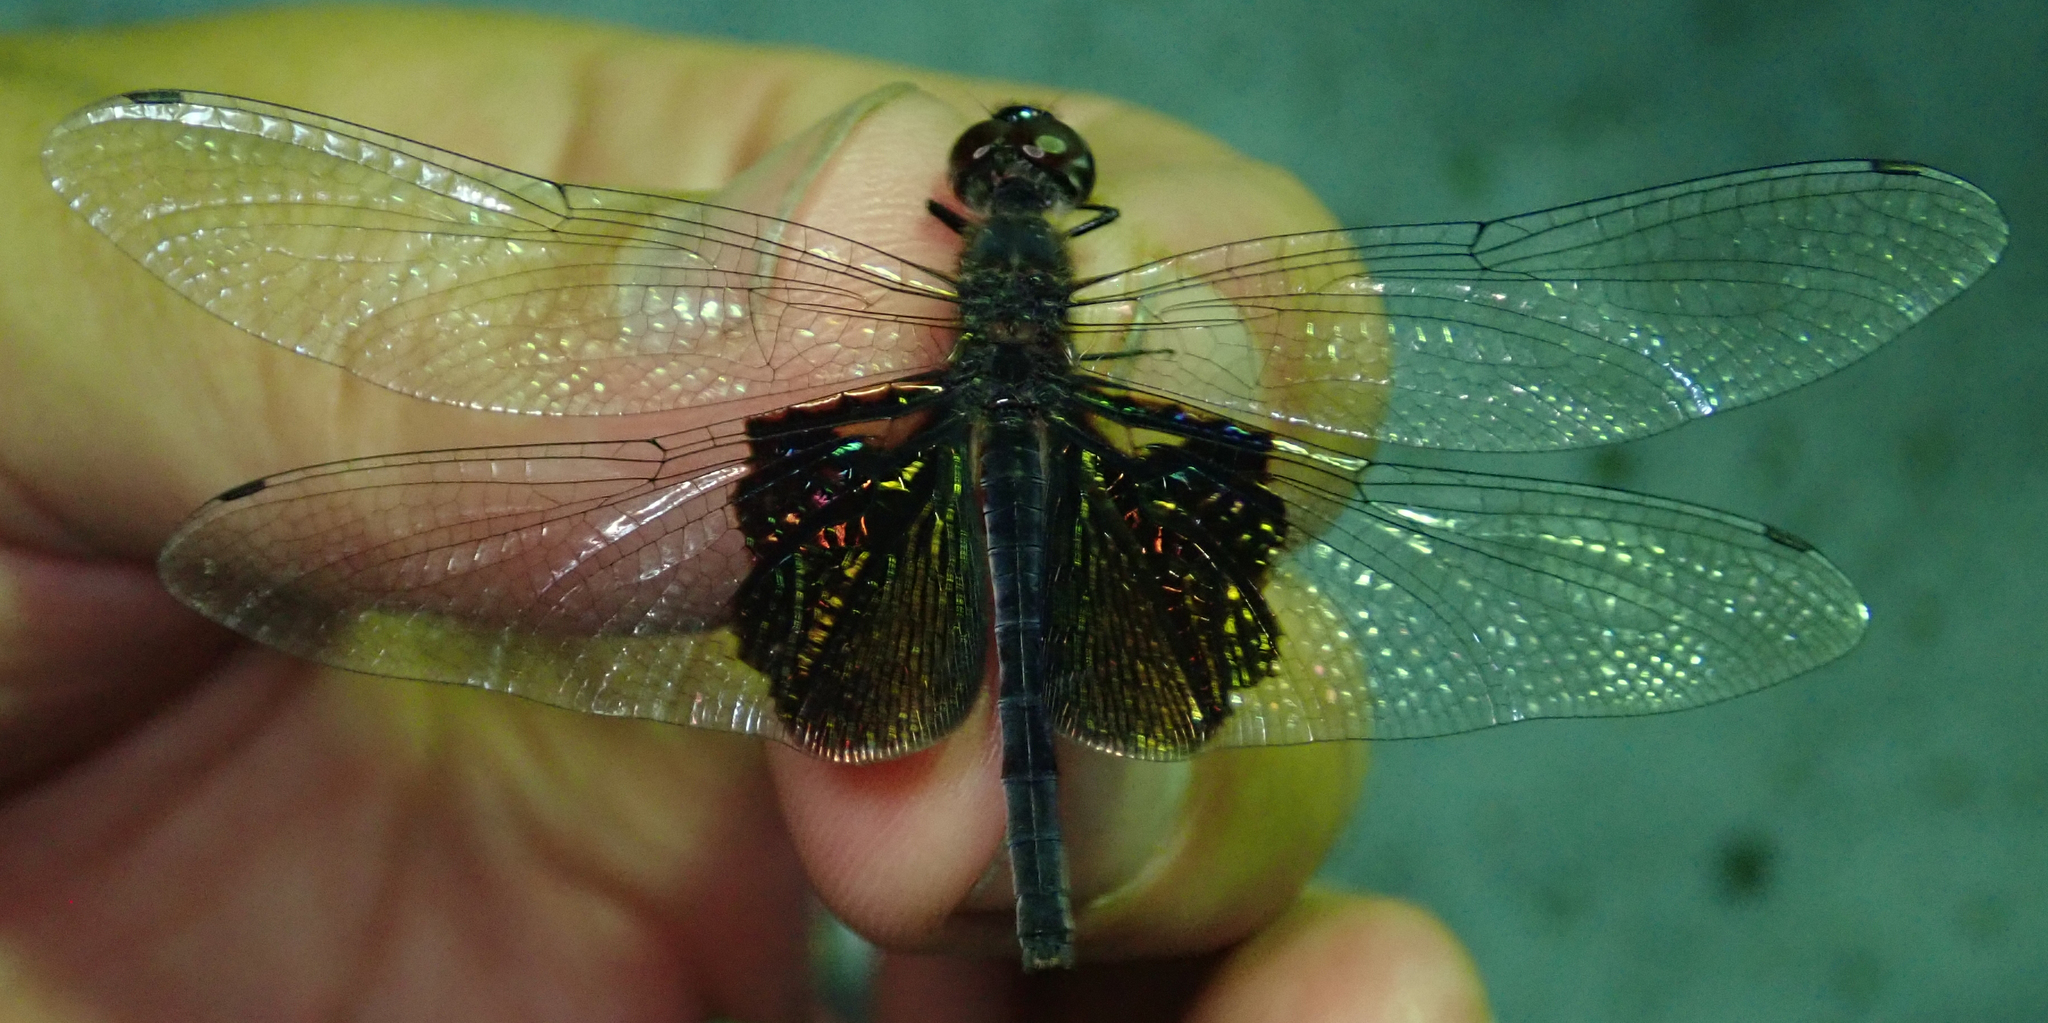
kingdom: Animalia
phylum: Arthropoda
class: Insecta
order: Odonata
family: Libellulidae
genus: Rhyothemis
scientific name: Rhyothemis semihyalina
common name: Phantom flutterer
